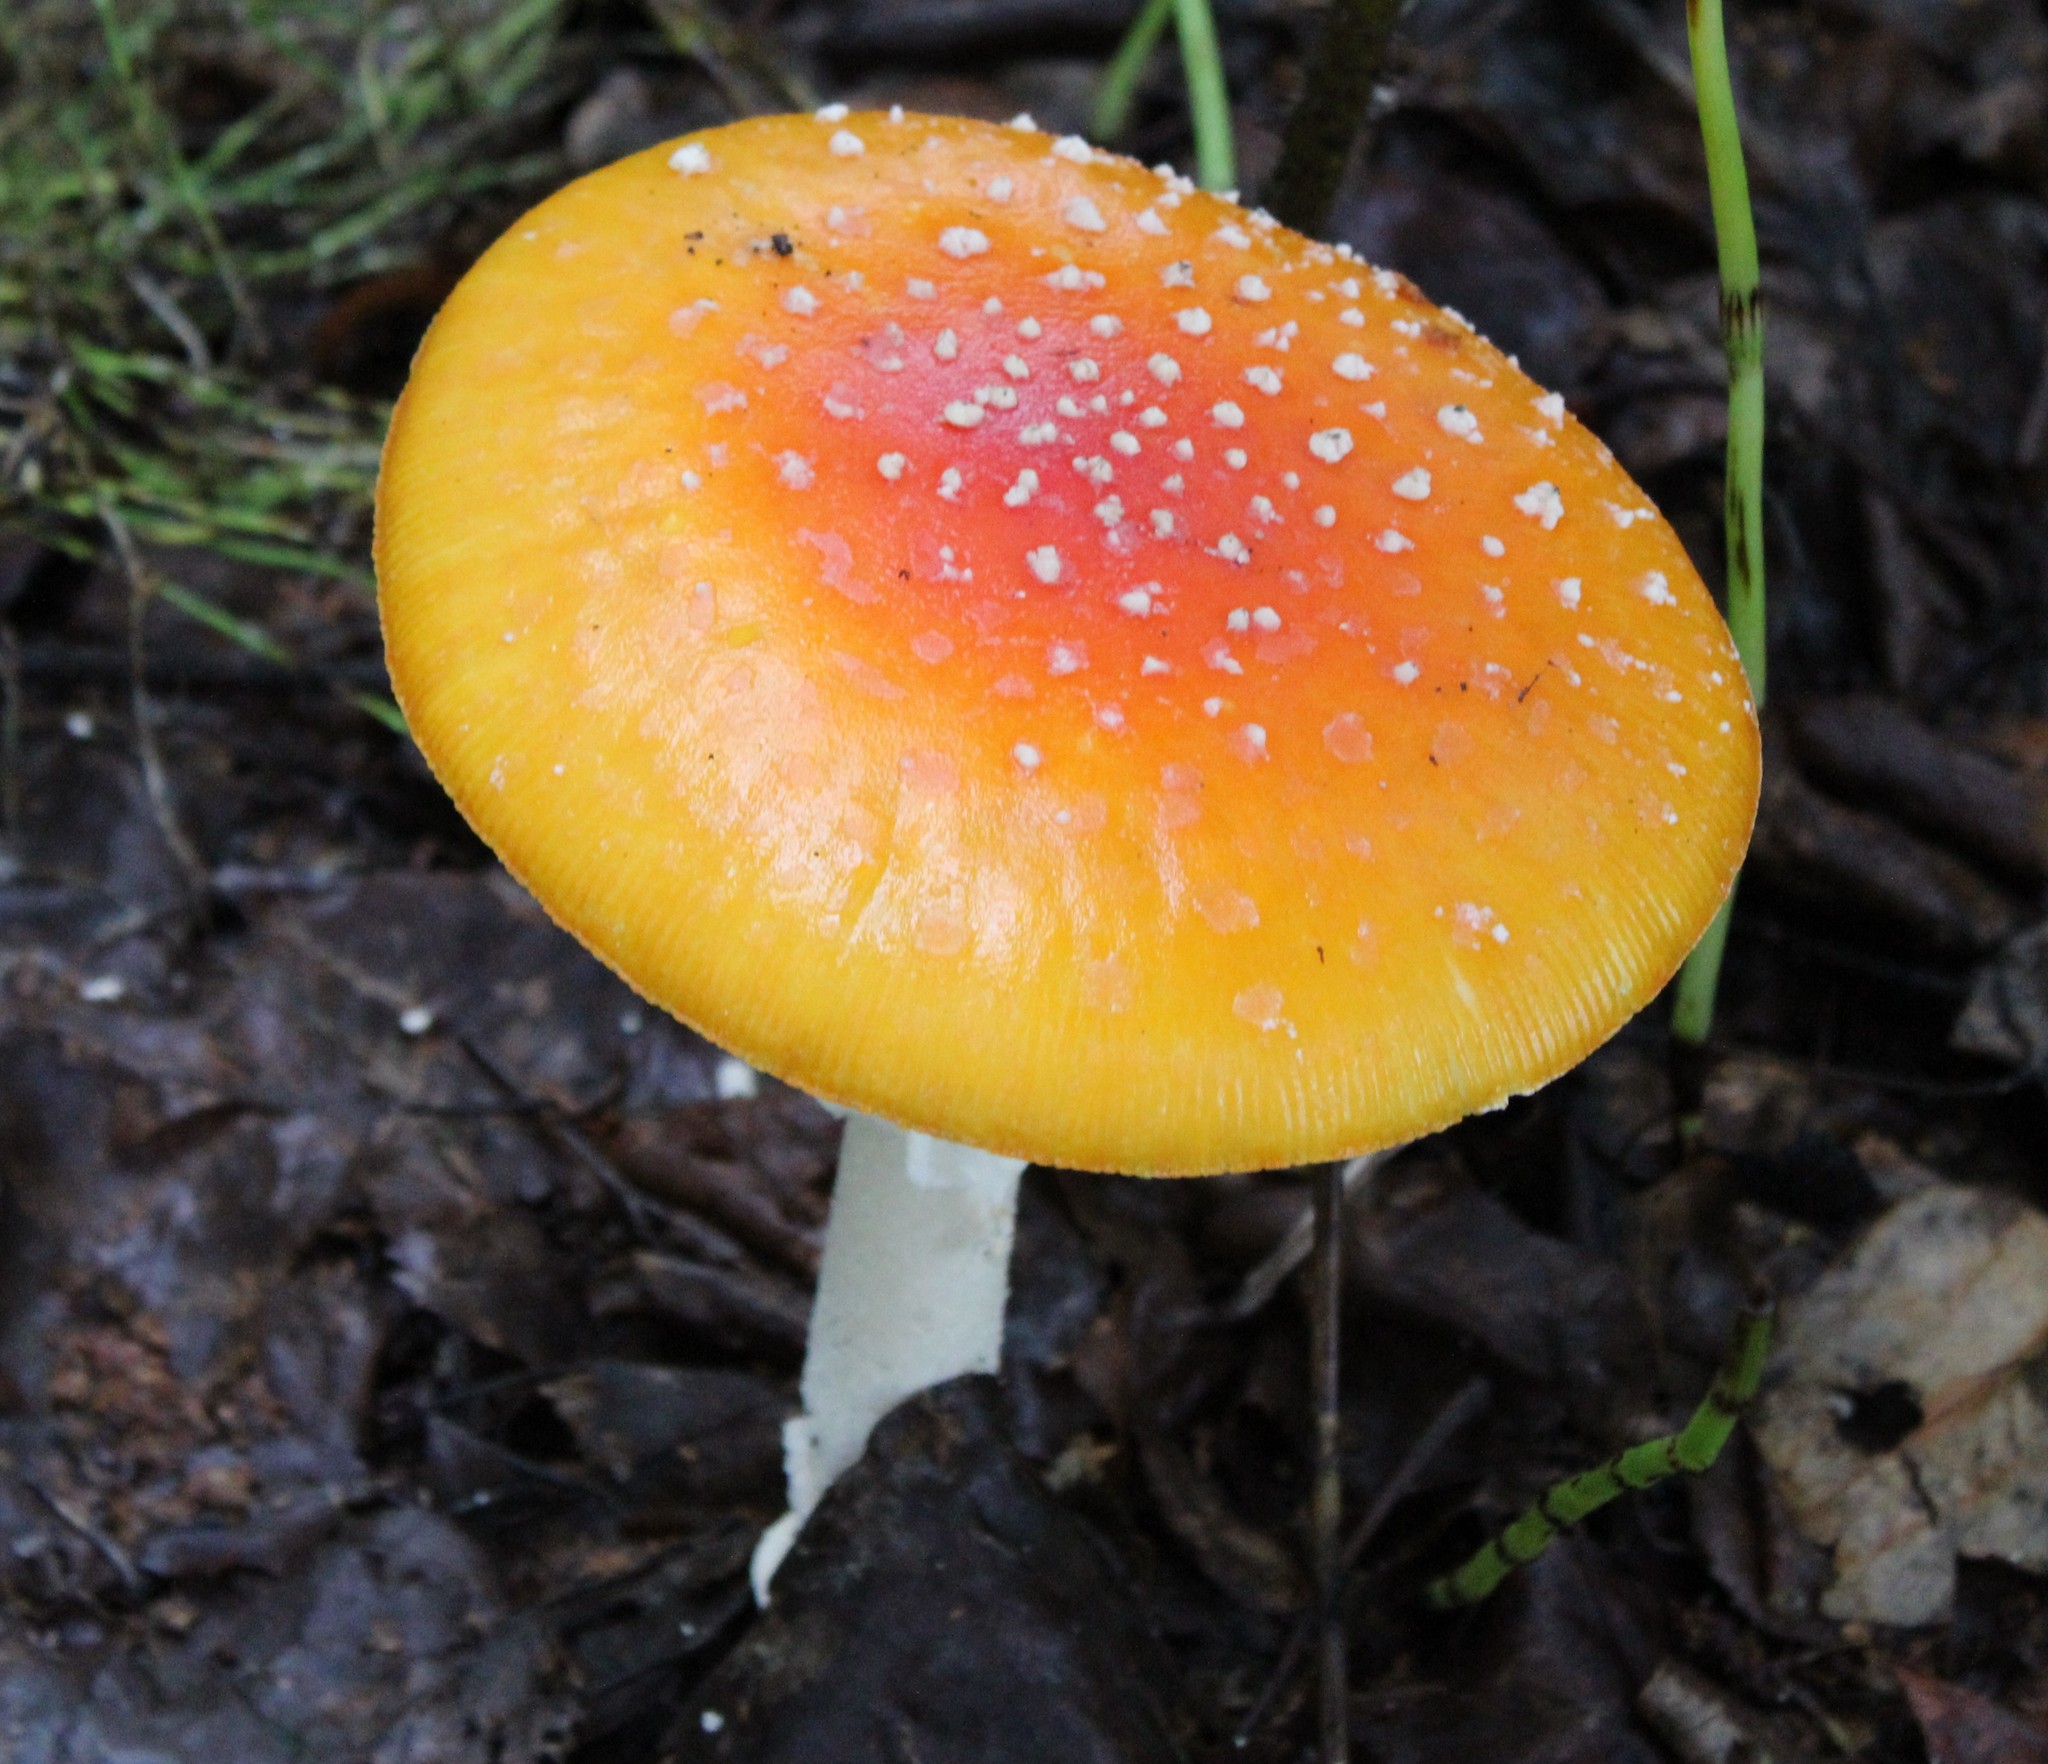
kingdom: Fungi
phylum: Basidiomycota
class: Agaricomycetes
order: Agaricales
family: Amanitaceae
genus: Amanita
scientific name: Amanita muscaria
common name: Fly agaric
